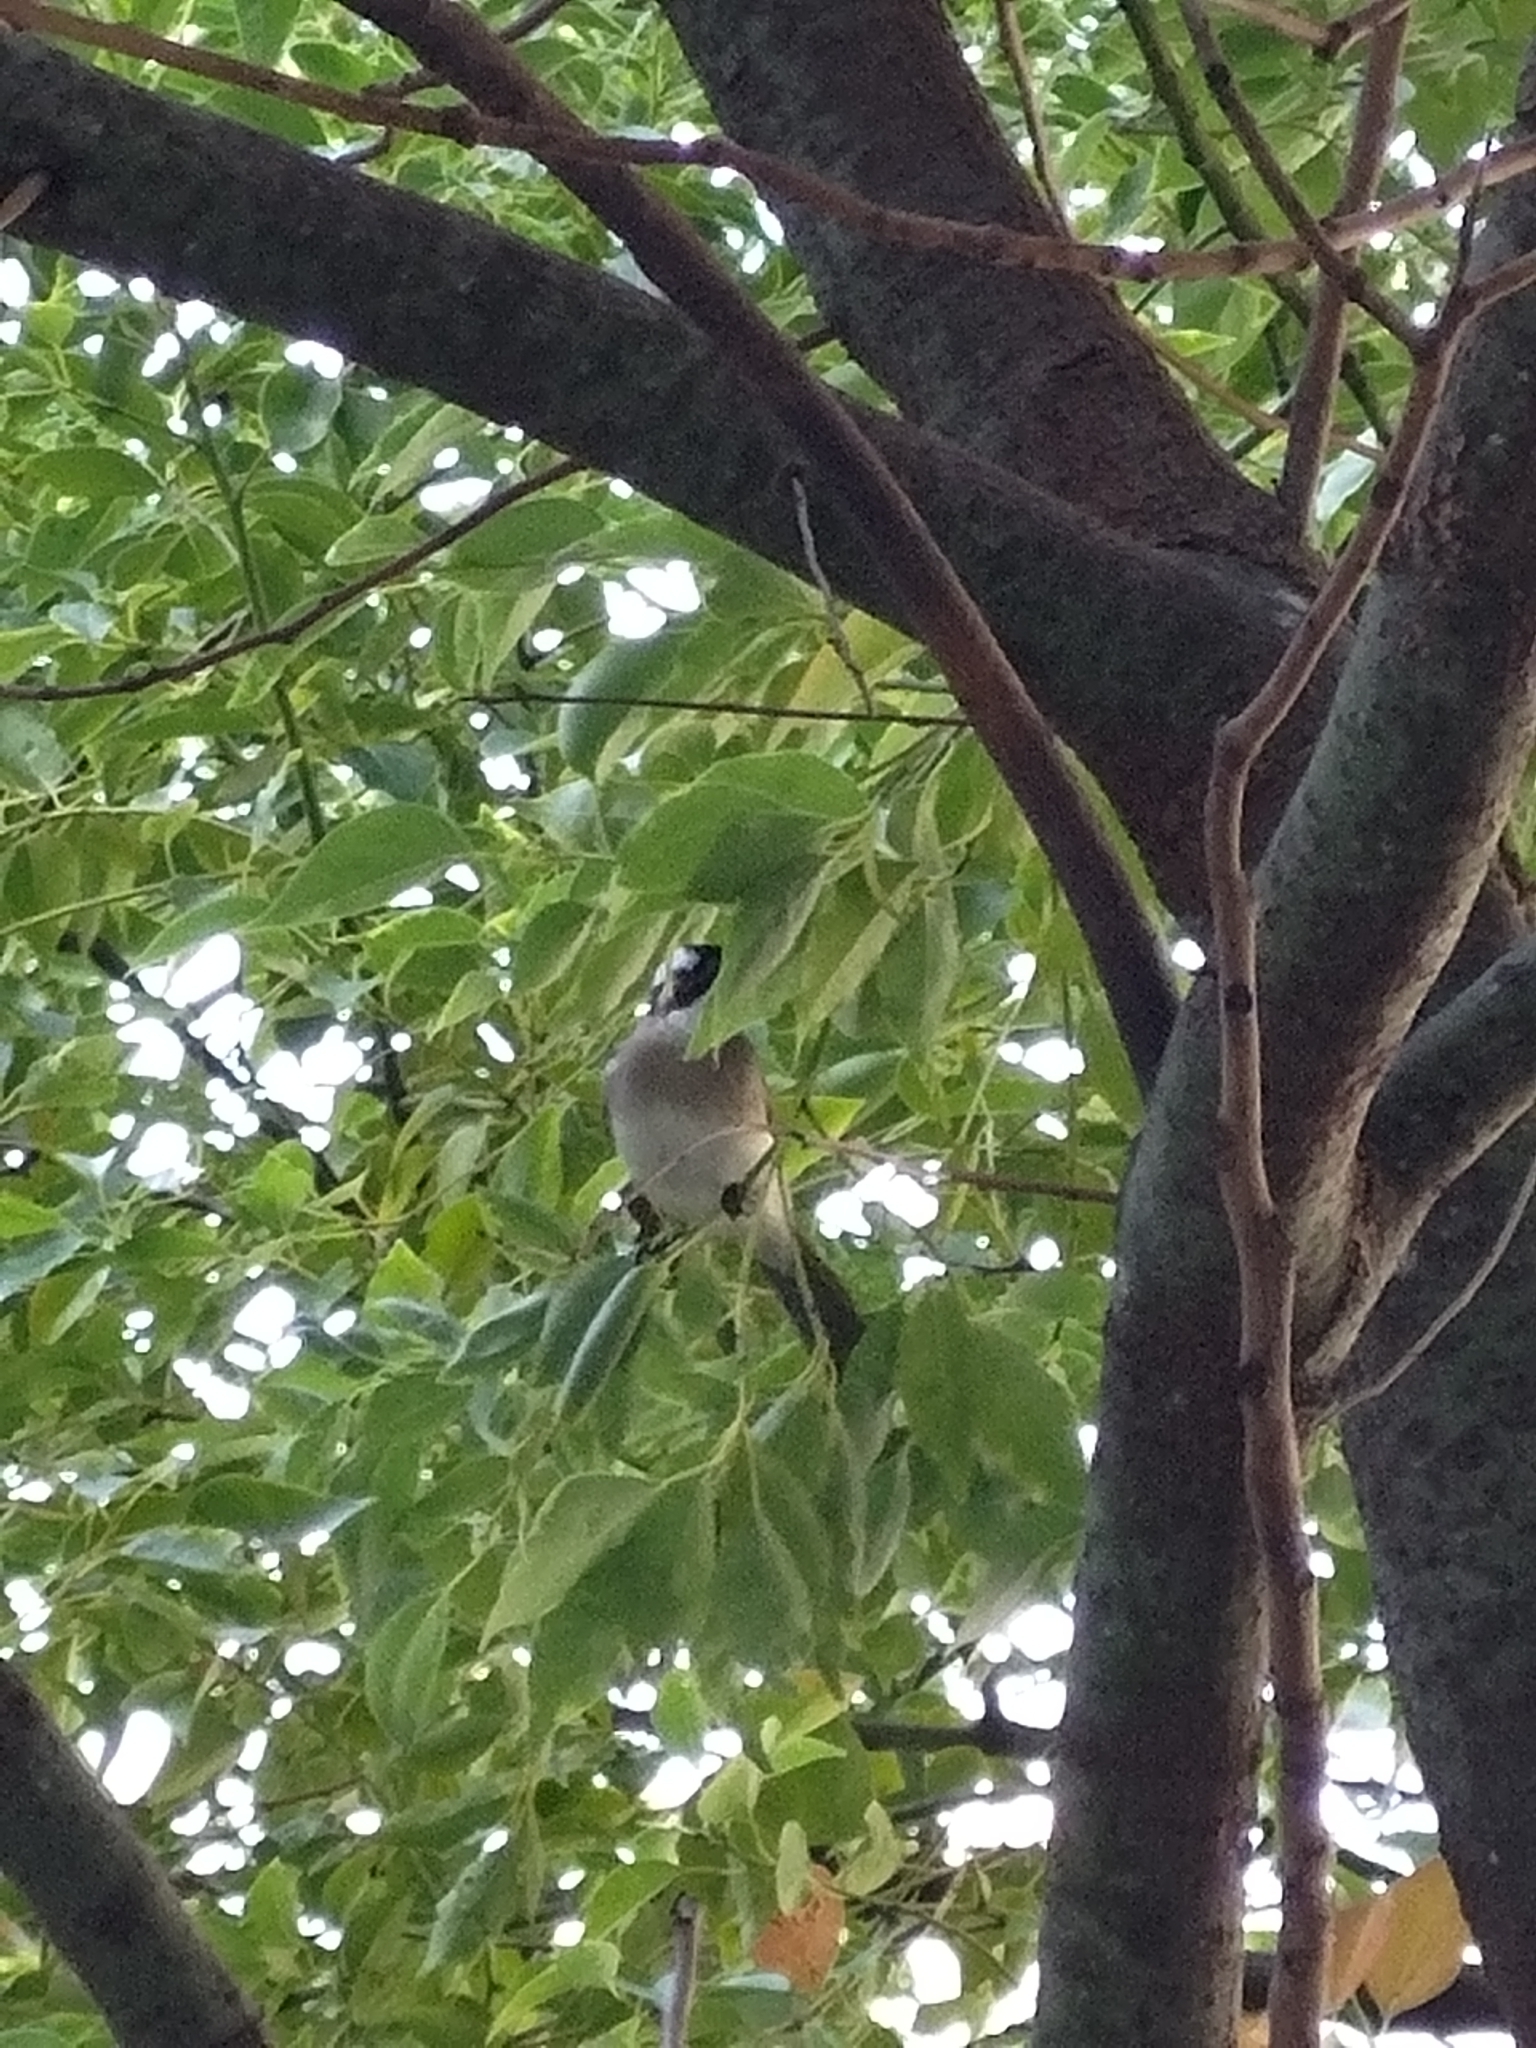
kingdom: Animalia
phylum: Chordata
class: Aves
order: Passeriformes
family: Pycnonotidae
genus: Pycnonotus
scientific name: Pycnonotus sinensis
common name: Light-vented bulbul
